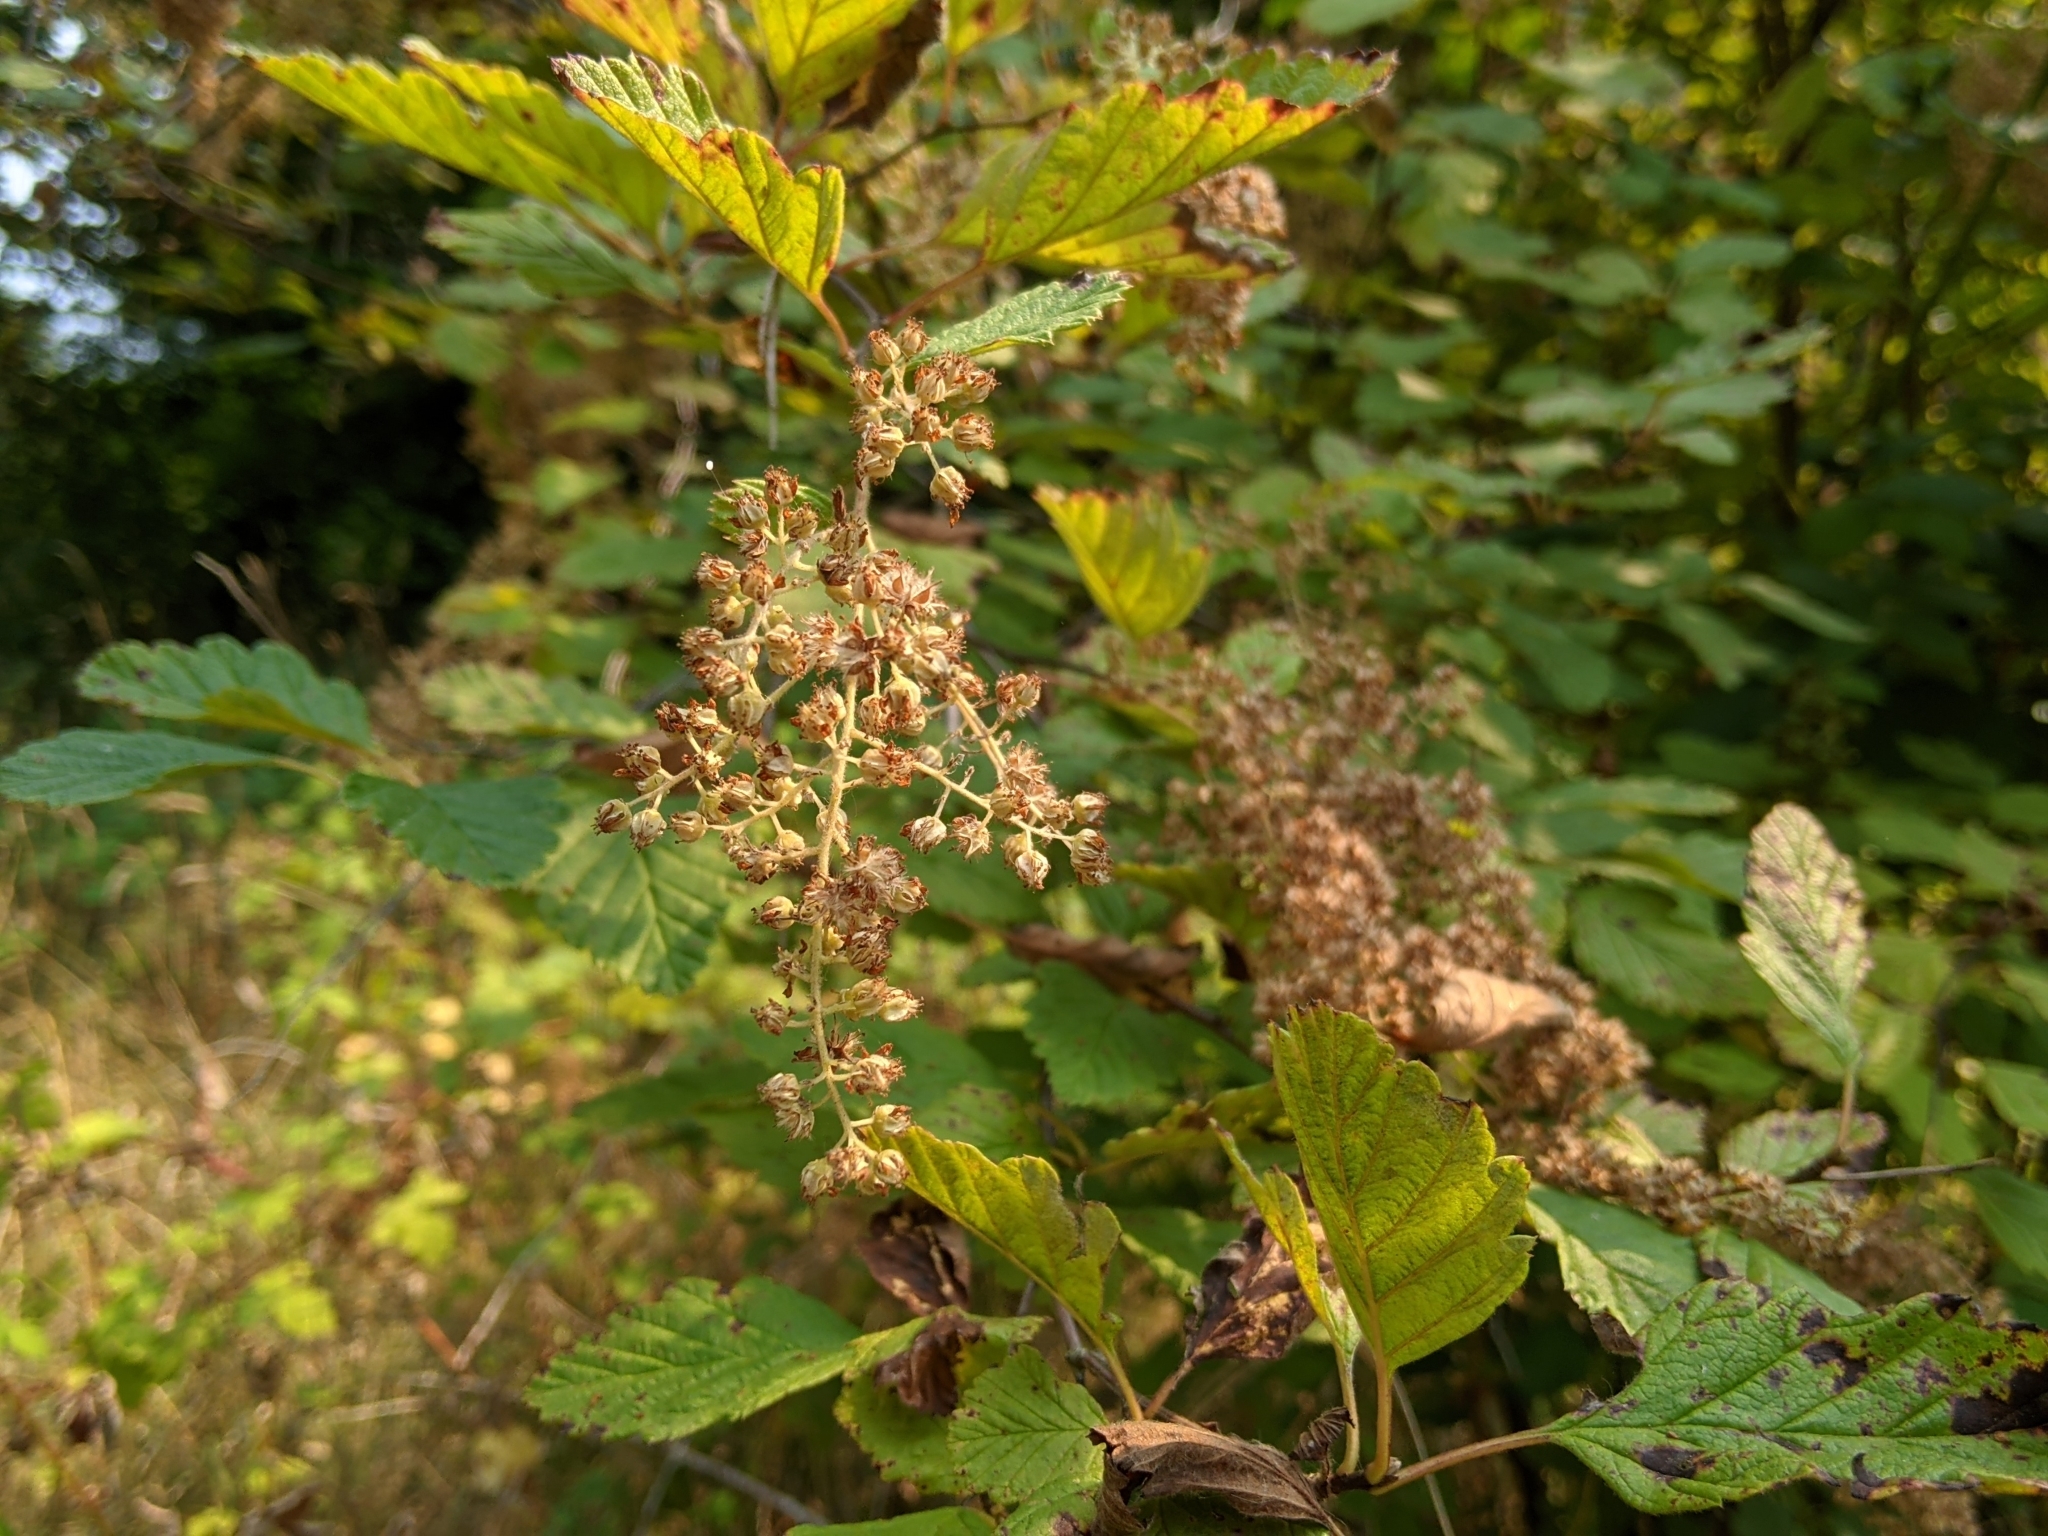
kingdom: Plantae
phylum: Tracheophyta
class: Magnoliopsida
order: Rosales
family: Rosaceae
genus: Holodiscus
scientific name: Holodiscus discolor
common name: Oceanspray
